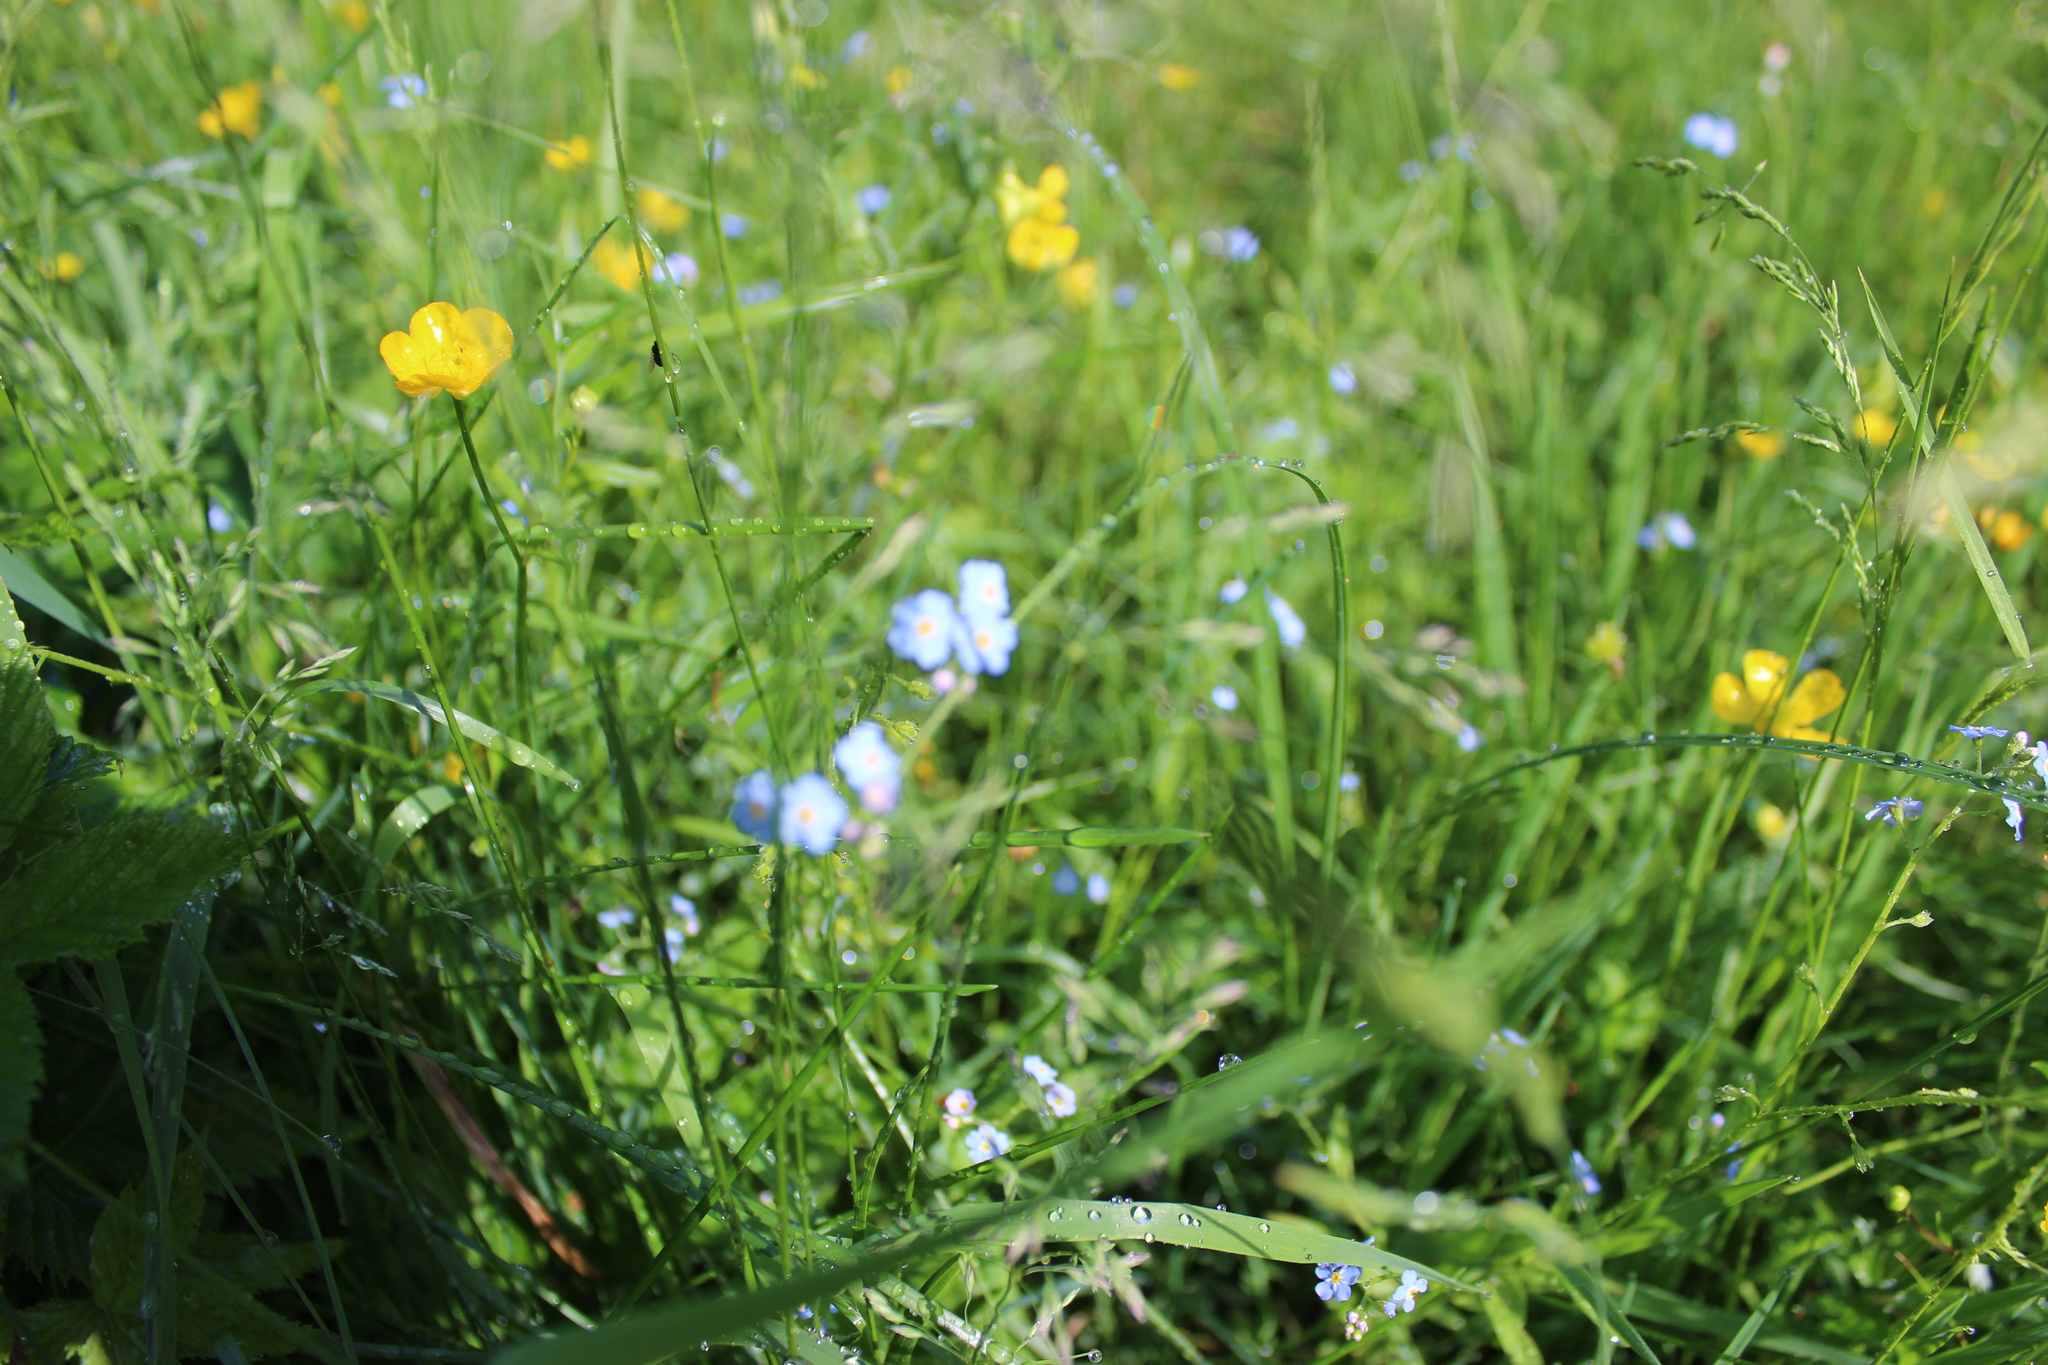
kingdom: Plantae
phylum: Tracheophyta
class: Magnoliopsida
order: Boraginales
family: Boraginaceae
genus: Myosotis
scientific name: Myosotis scorpioides
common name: Water forget-me-not
